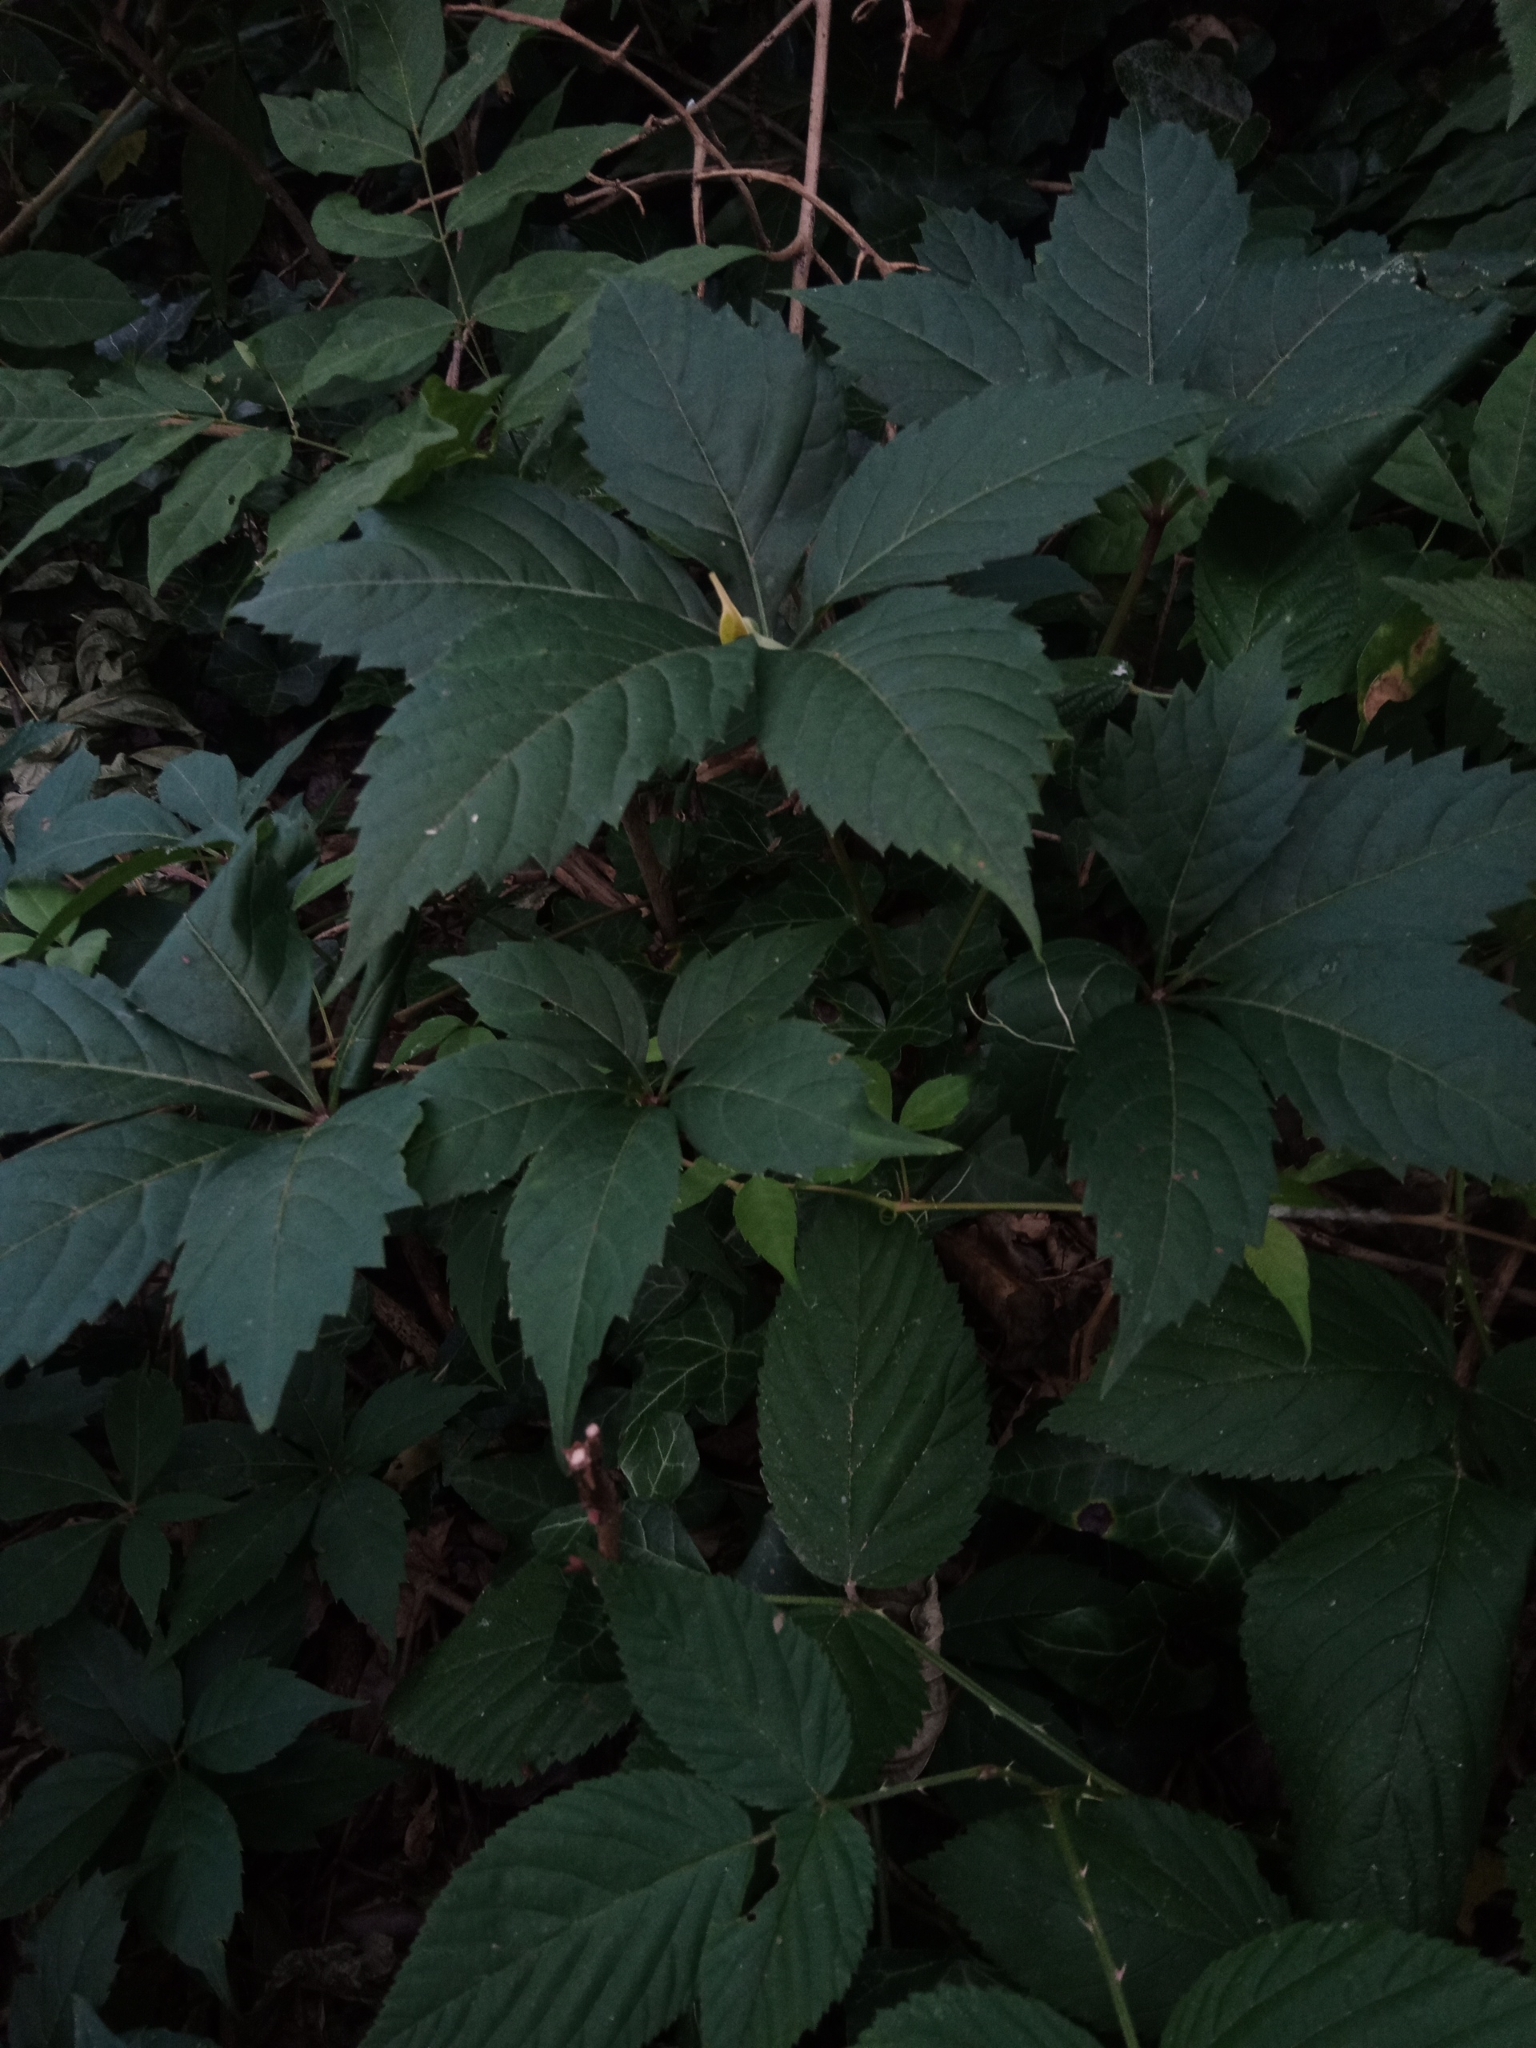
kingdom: Plantae
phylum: Tracheophyta
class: Magnoliopsida
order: Vitales
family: Vitaceae
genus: Parthenocissus
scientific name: Parthenocissus quinquefolia
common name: Virginia-creeper
